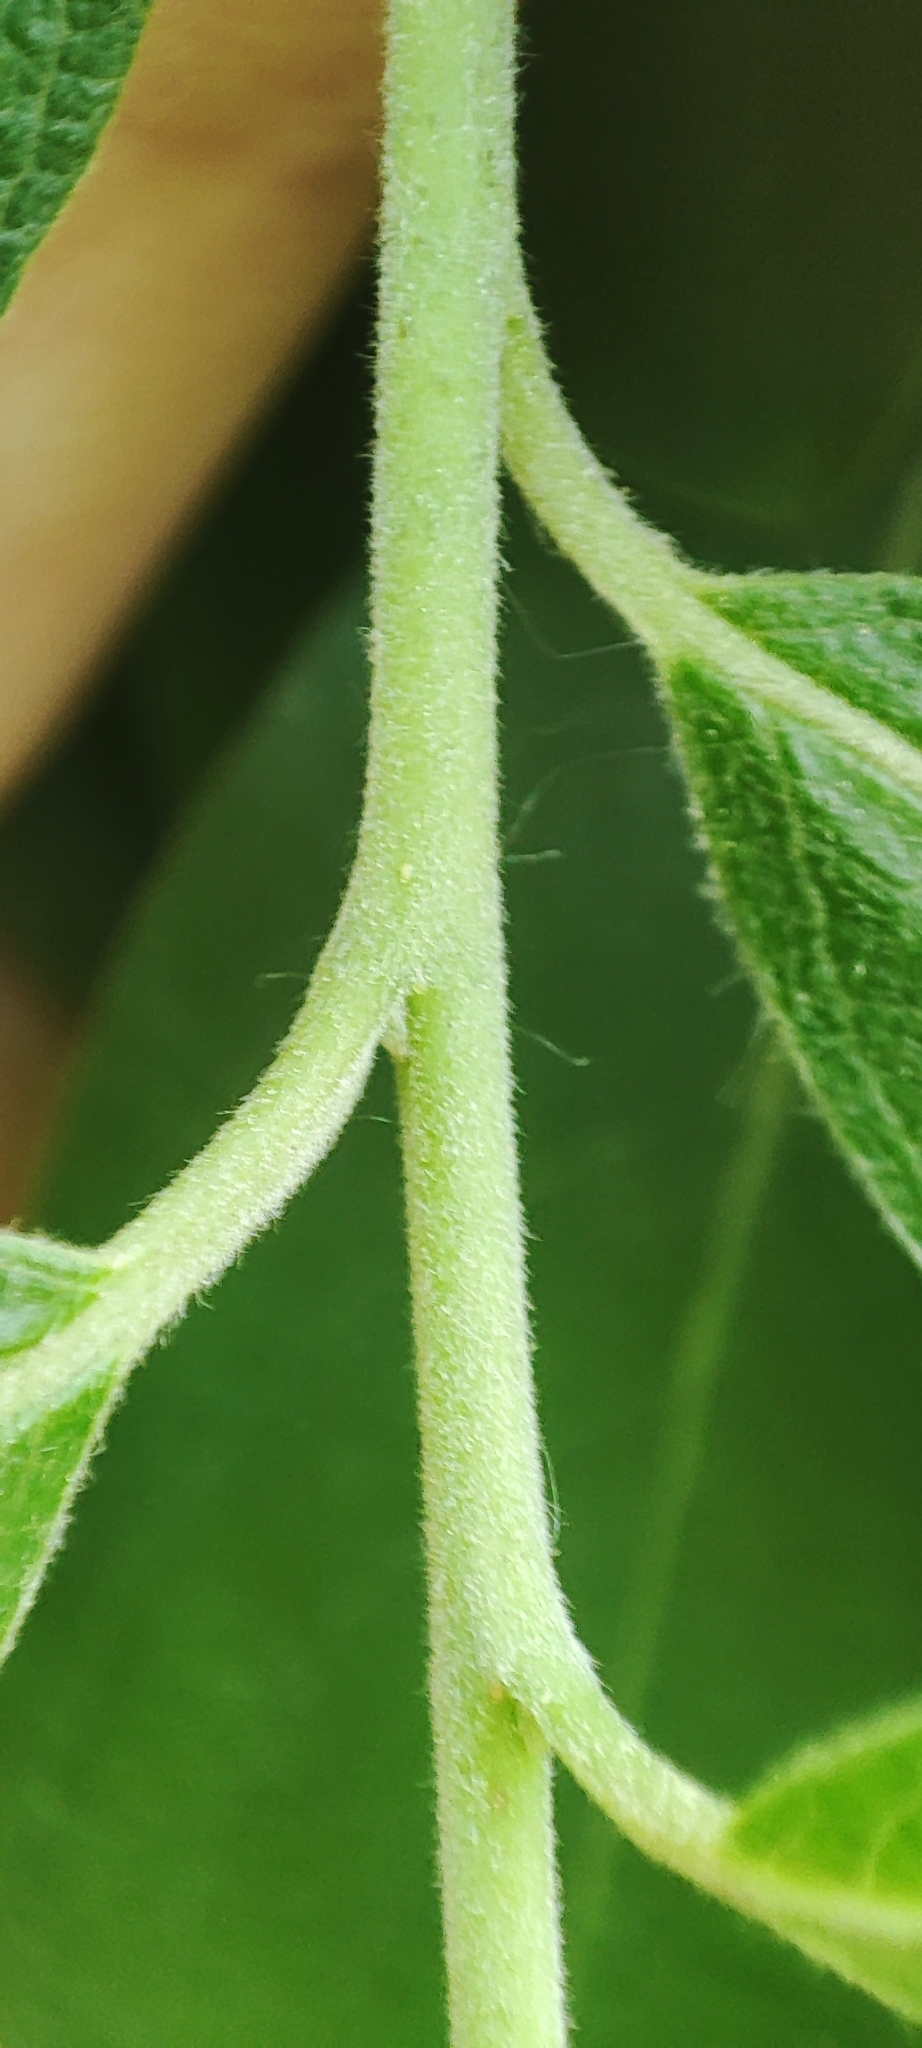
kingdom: Plantae
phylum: Tracheophyta
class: Magnoliopsida
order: Malpighiales
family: Salicaceae
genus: Salix
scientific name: Salix cinerea
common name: Common sallow
